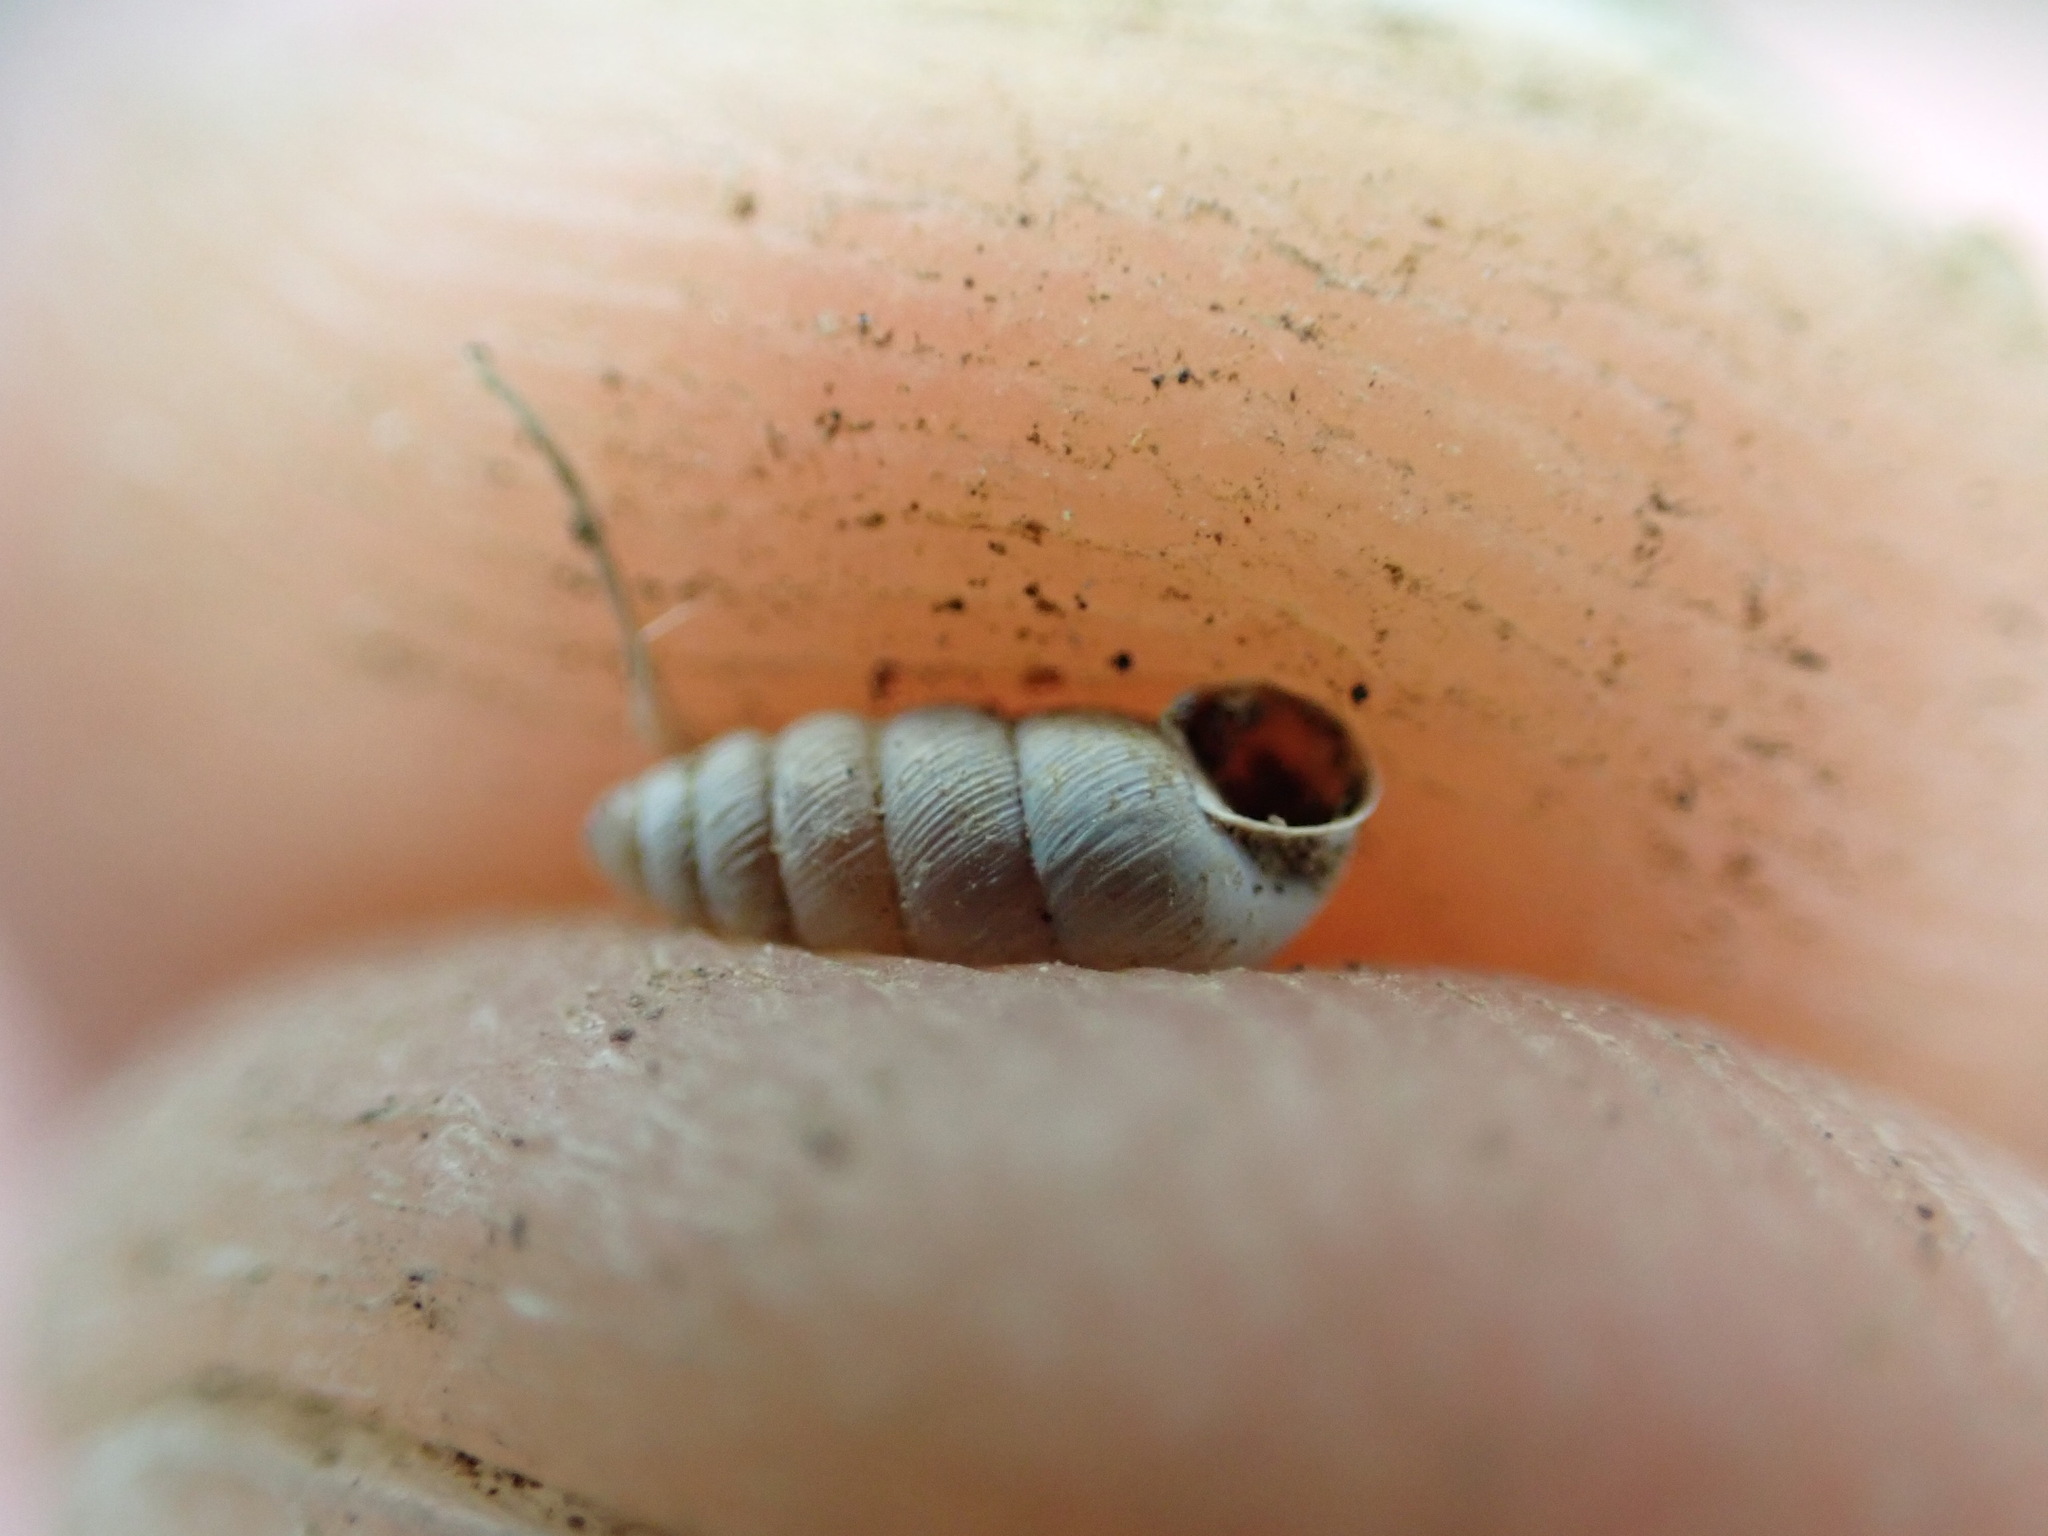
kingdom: Animalia
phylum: Mollusca
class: Gastropoda
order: Stylommatophora
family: Chondrinidae
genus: Granopupa
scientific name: Granopupa granum
